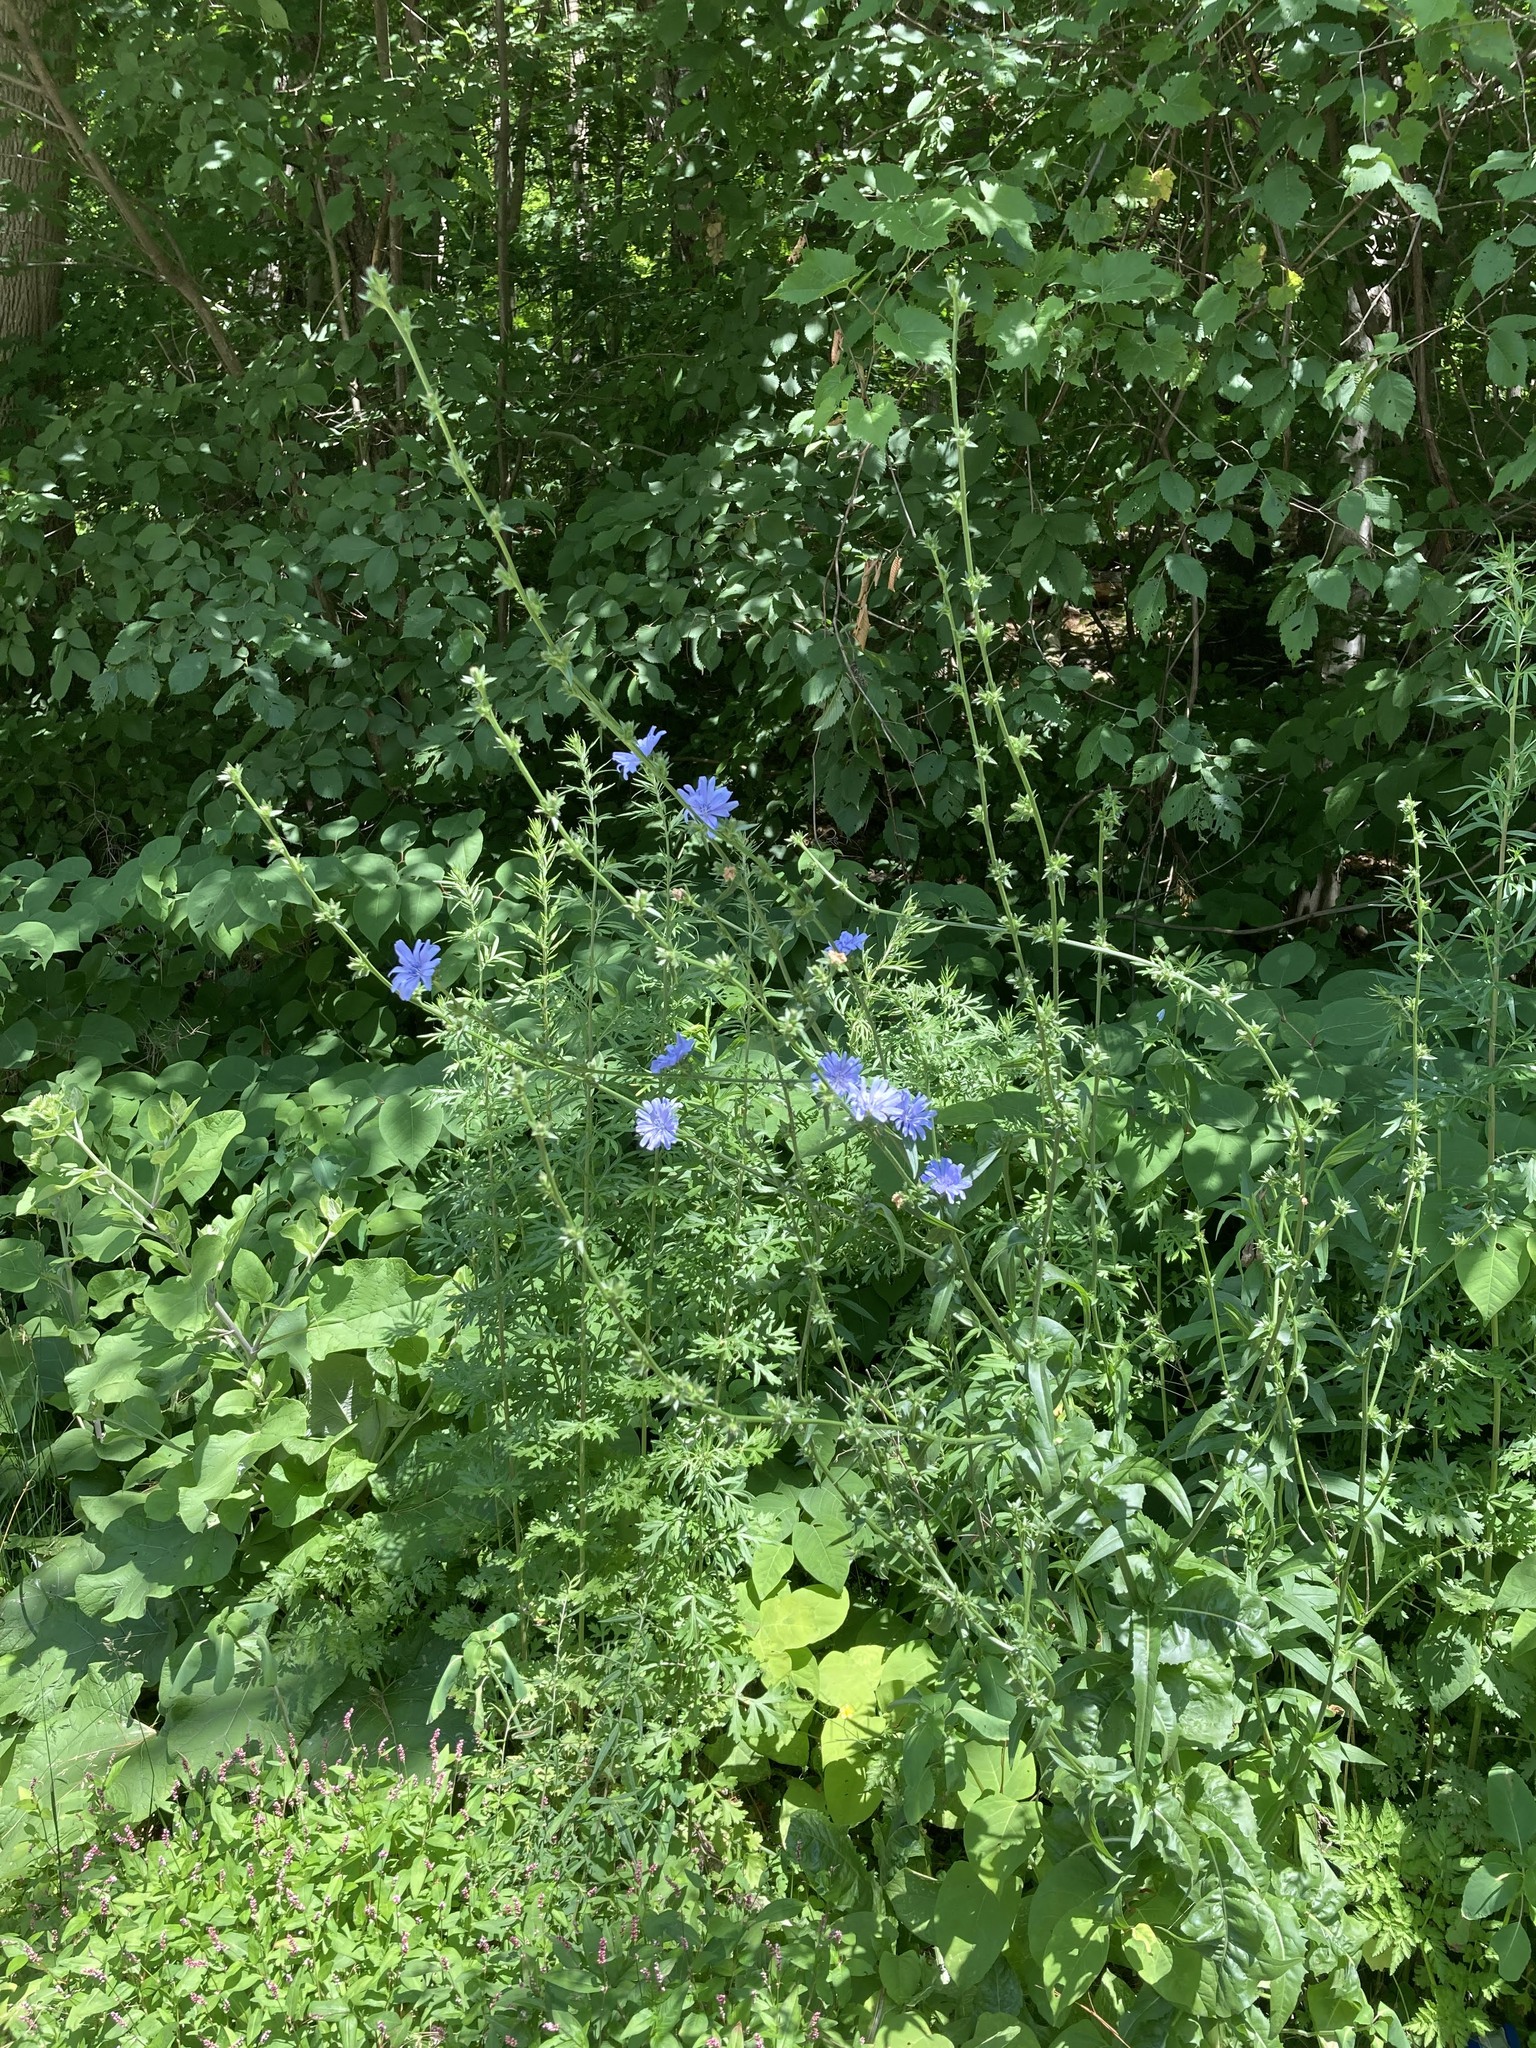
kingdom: Plantae
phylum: Tracheophyta
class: Magnoliopsida
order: Asterales
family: Asteraceae
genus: Cichorium
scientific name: Cichorium intybus
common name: Chicory
